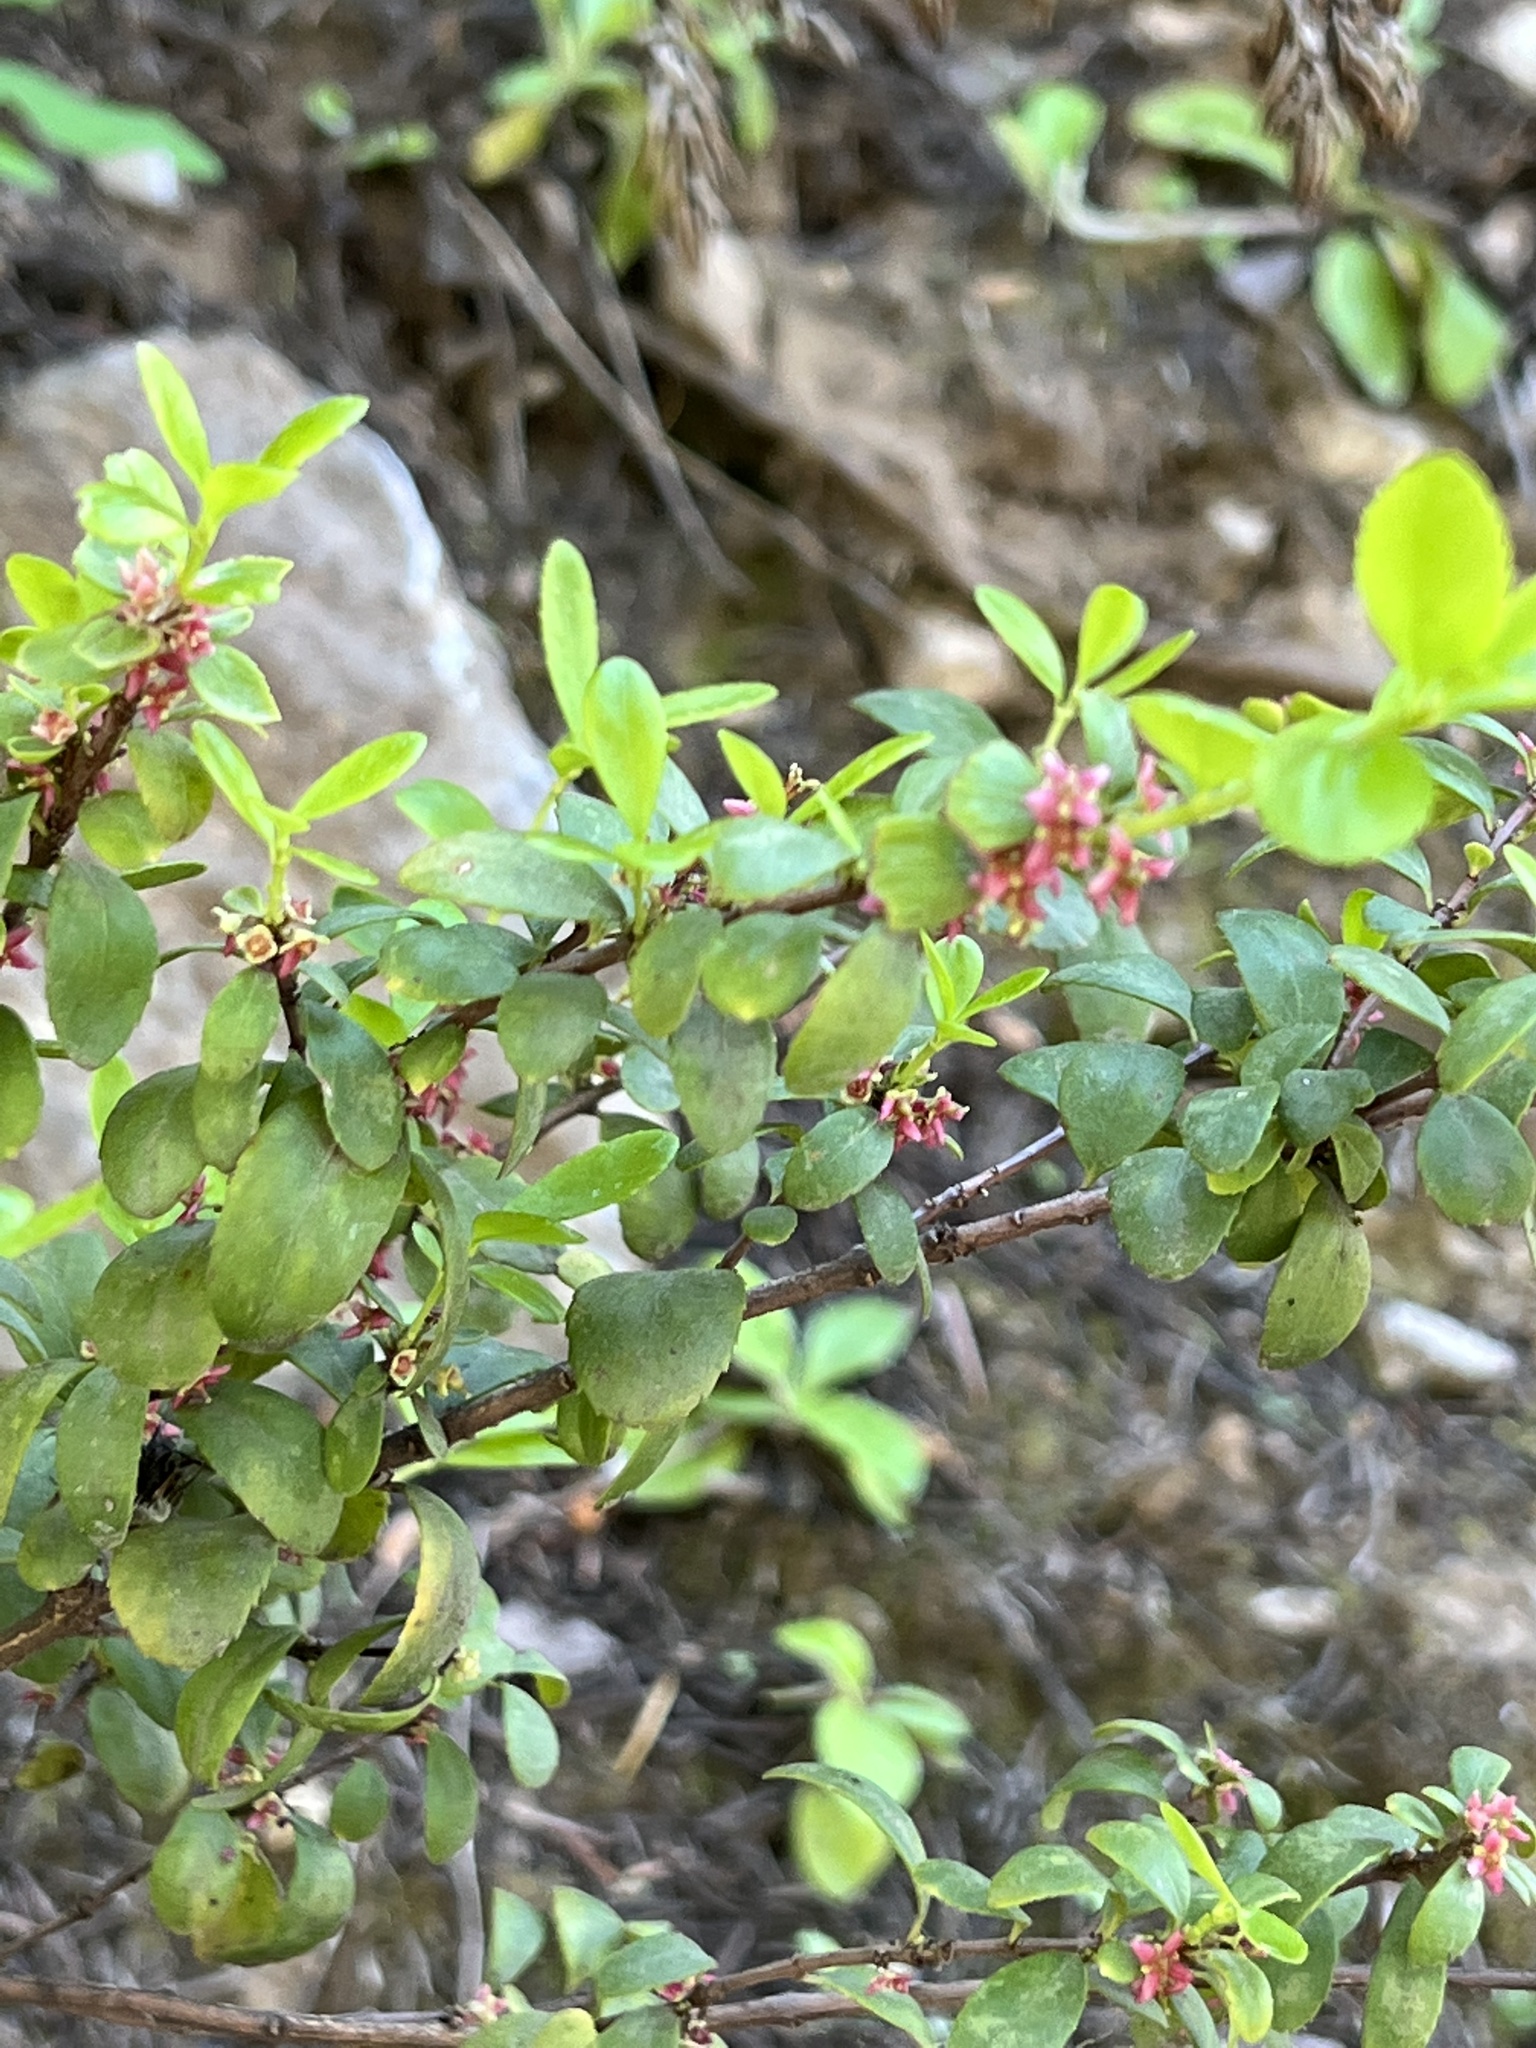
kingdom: Plantae
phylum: Tracheophyta
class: Magnoliopsida
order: Celastrales
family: Celastraceae
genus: Paxistima
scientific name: Paxistima myrsinites
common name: Mountain-lover
